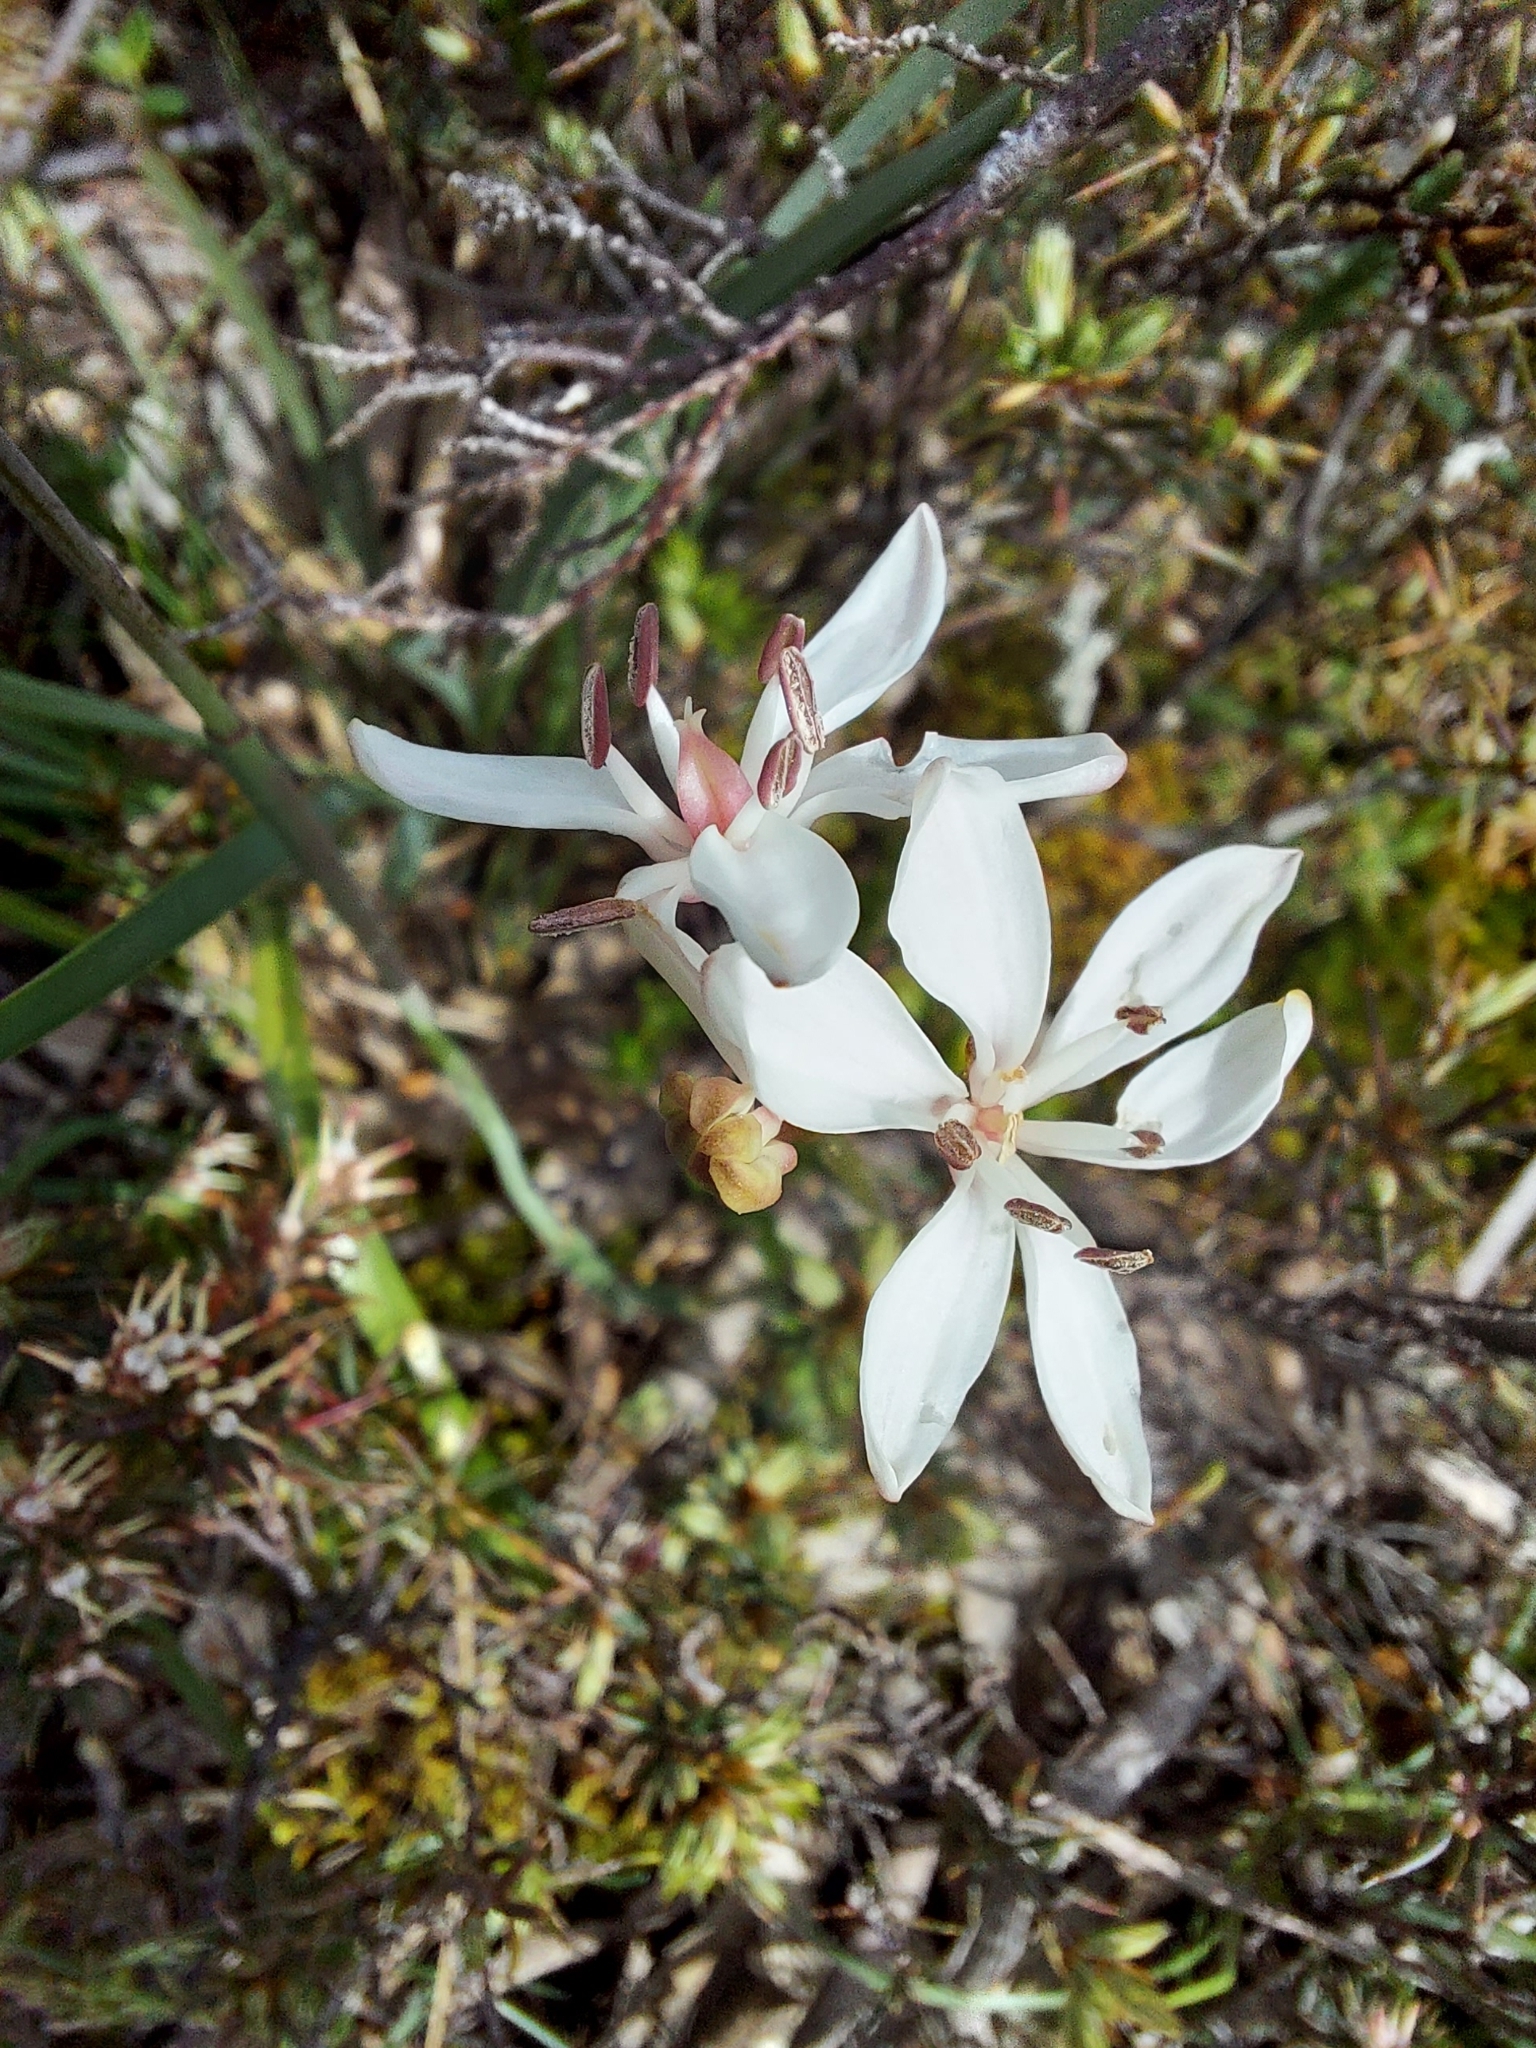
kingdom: Plantae
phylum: Tracheophyta
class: Liliopsida
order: Liliales
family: Colchicaceae
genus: Burchardia
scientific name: Burchardia umbellata
